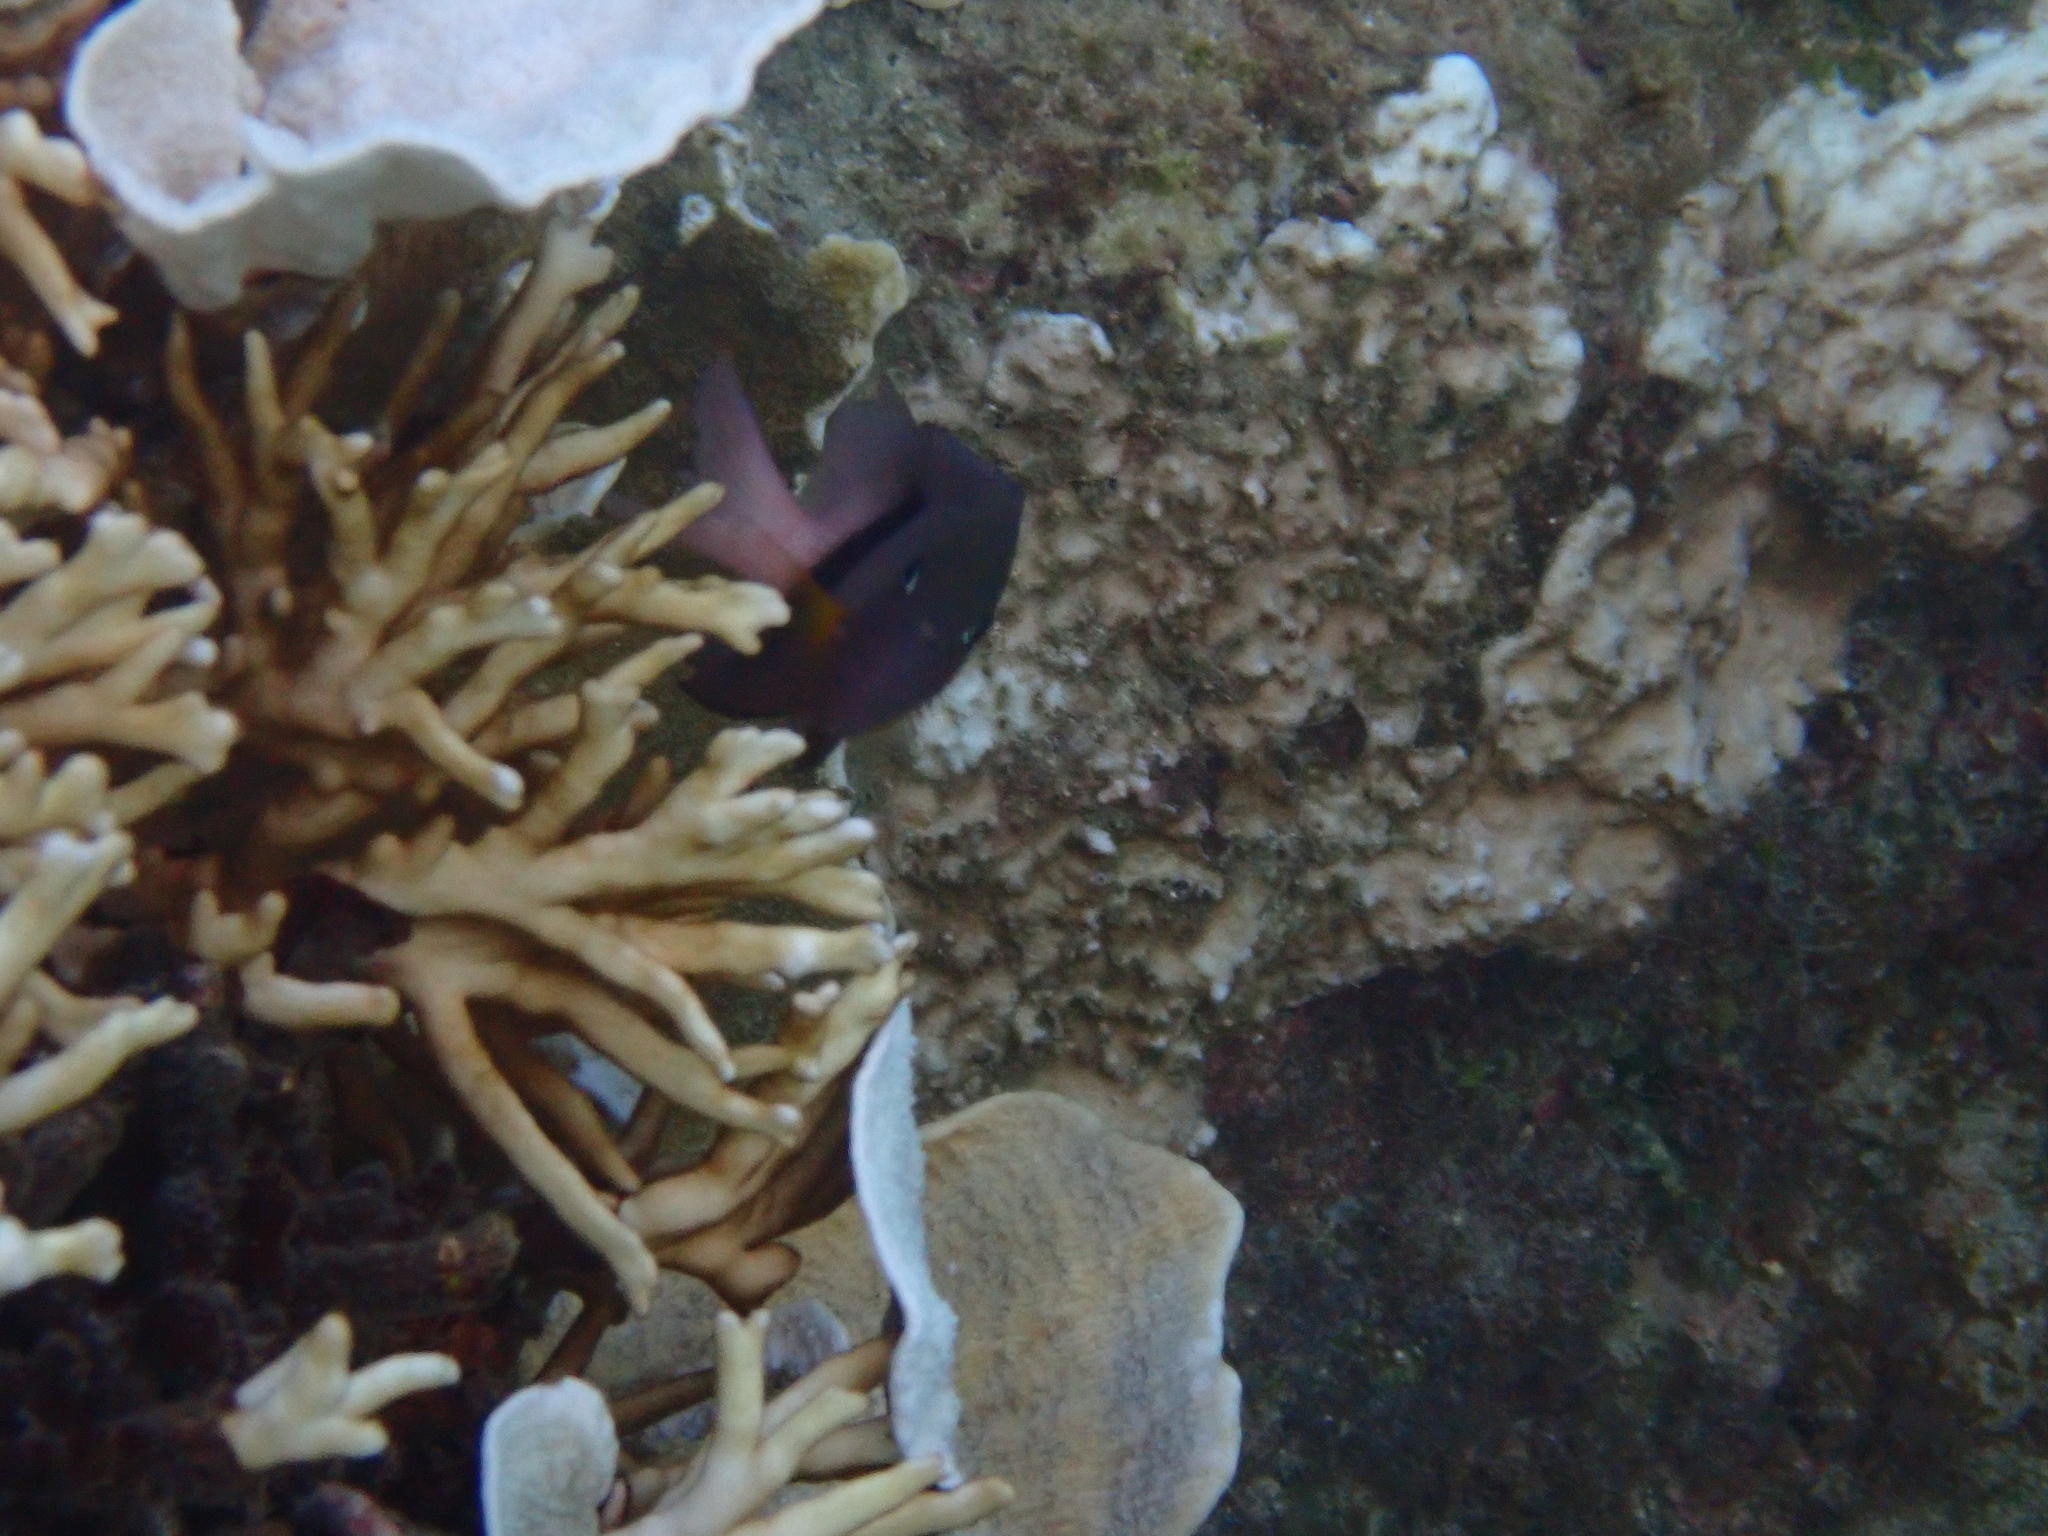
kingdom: Animalia
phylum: Chordata
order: Perciformes
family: Pomacentridae
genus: Plectroglyphidodon
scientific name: Plectroglyphidodon dickii
